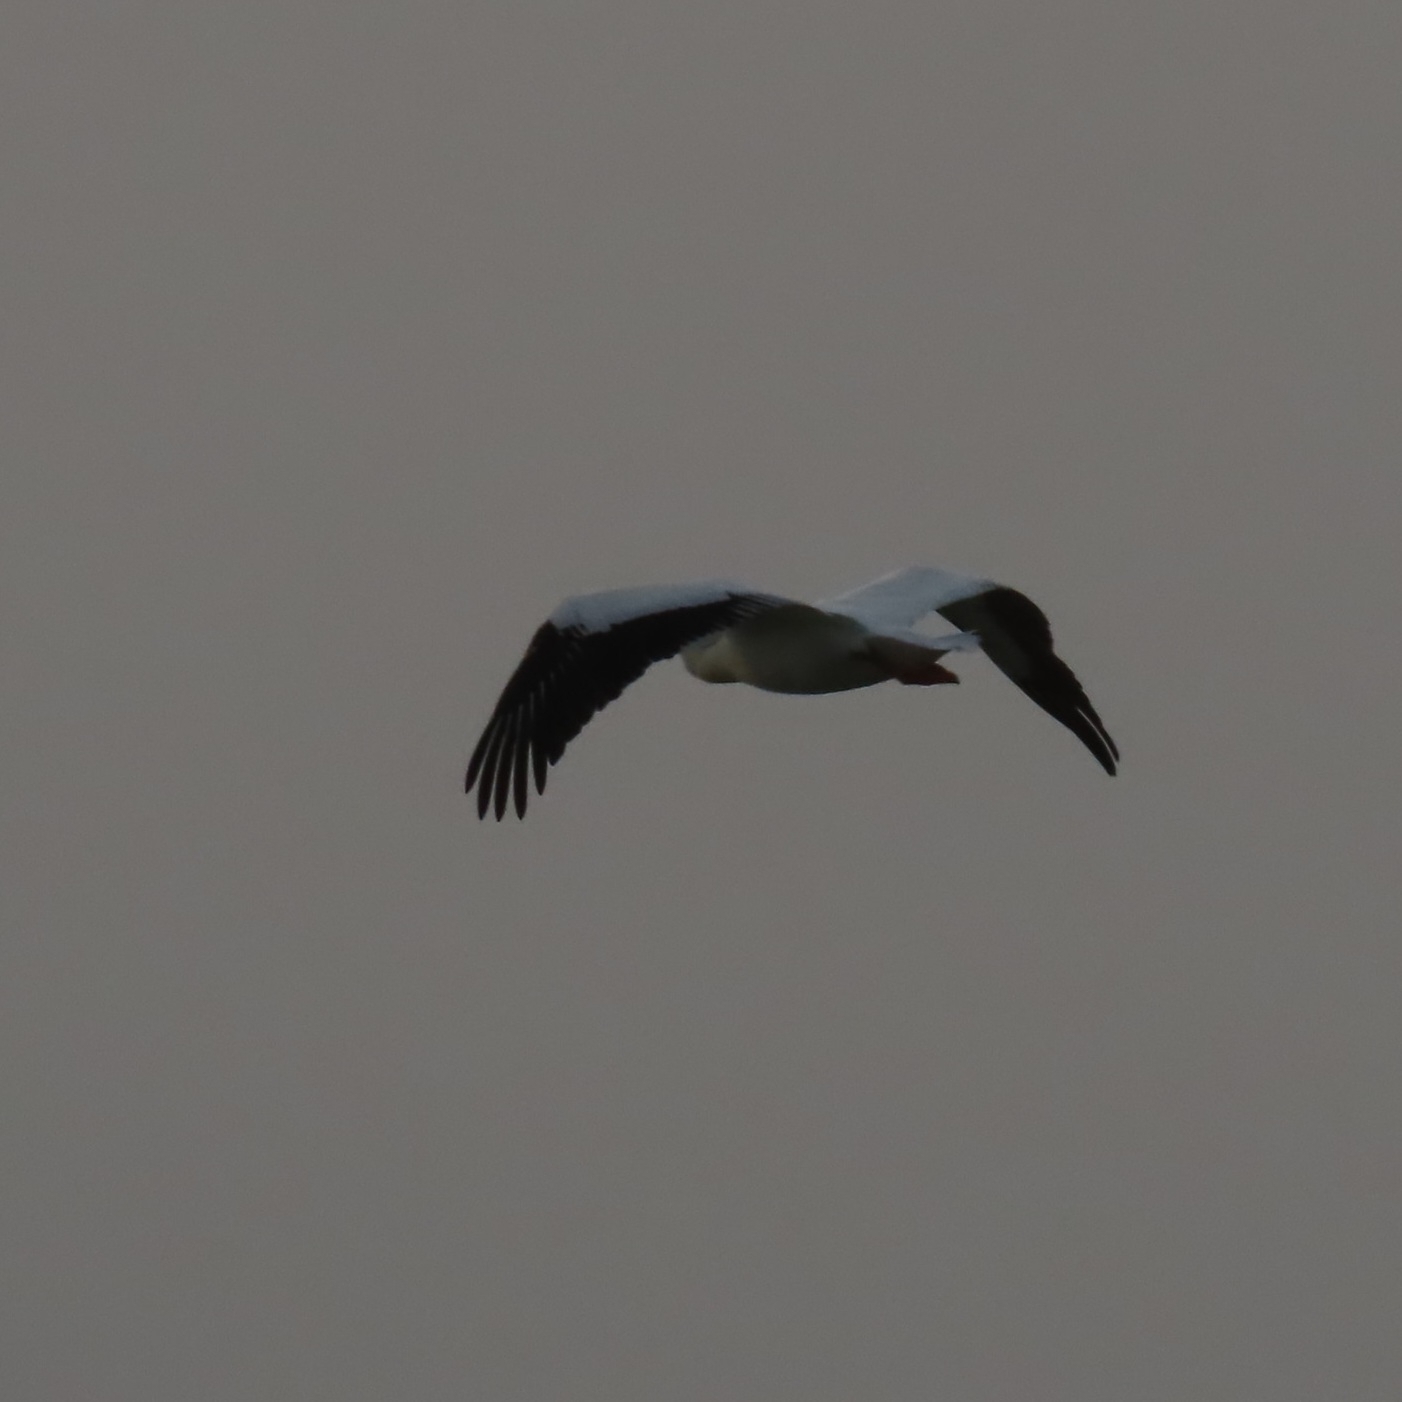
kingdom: Animalia
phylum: Chordata
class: Aves
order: Pelecaniformes
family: Pelecanidae
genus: Pelecanus
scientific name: Pelecanus erythrorhynchos
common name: American white pelican
